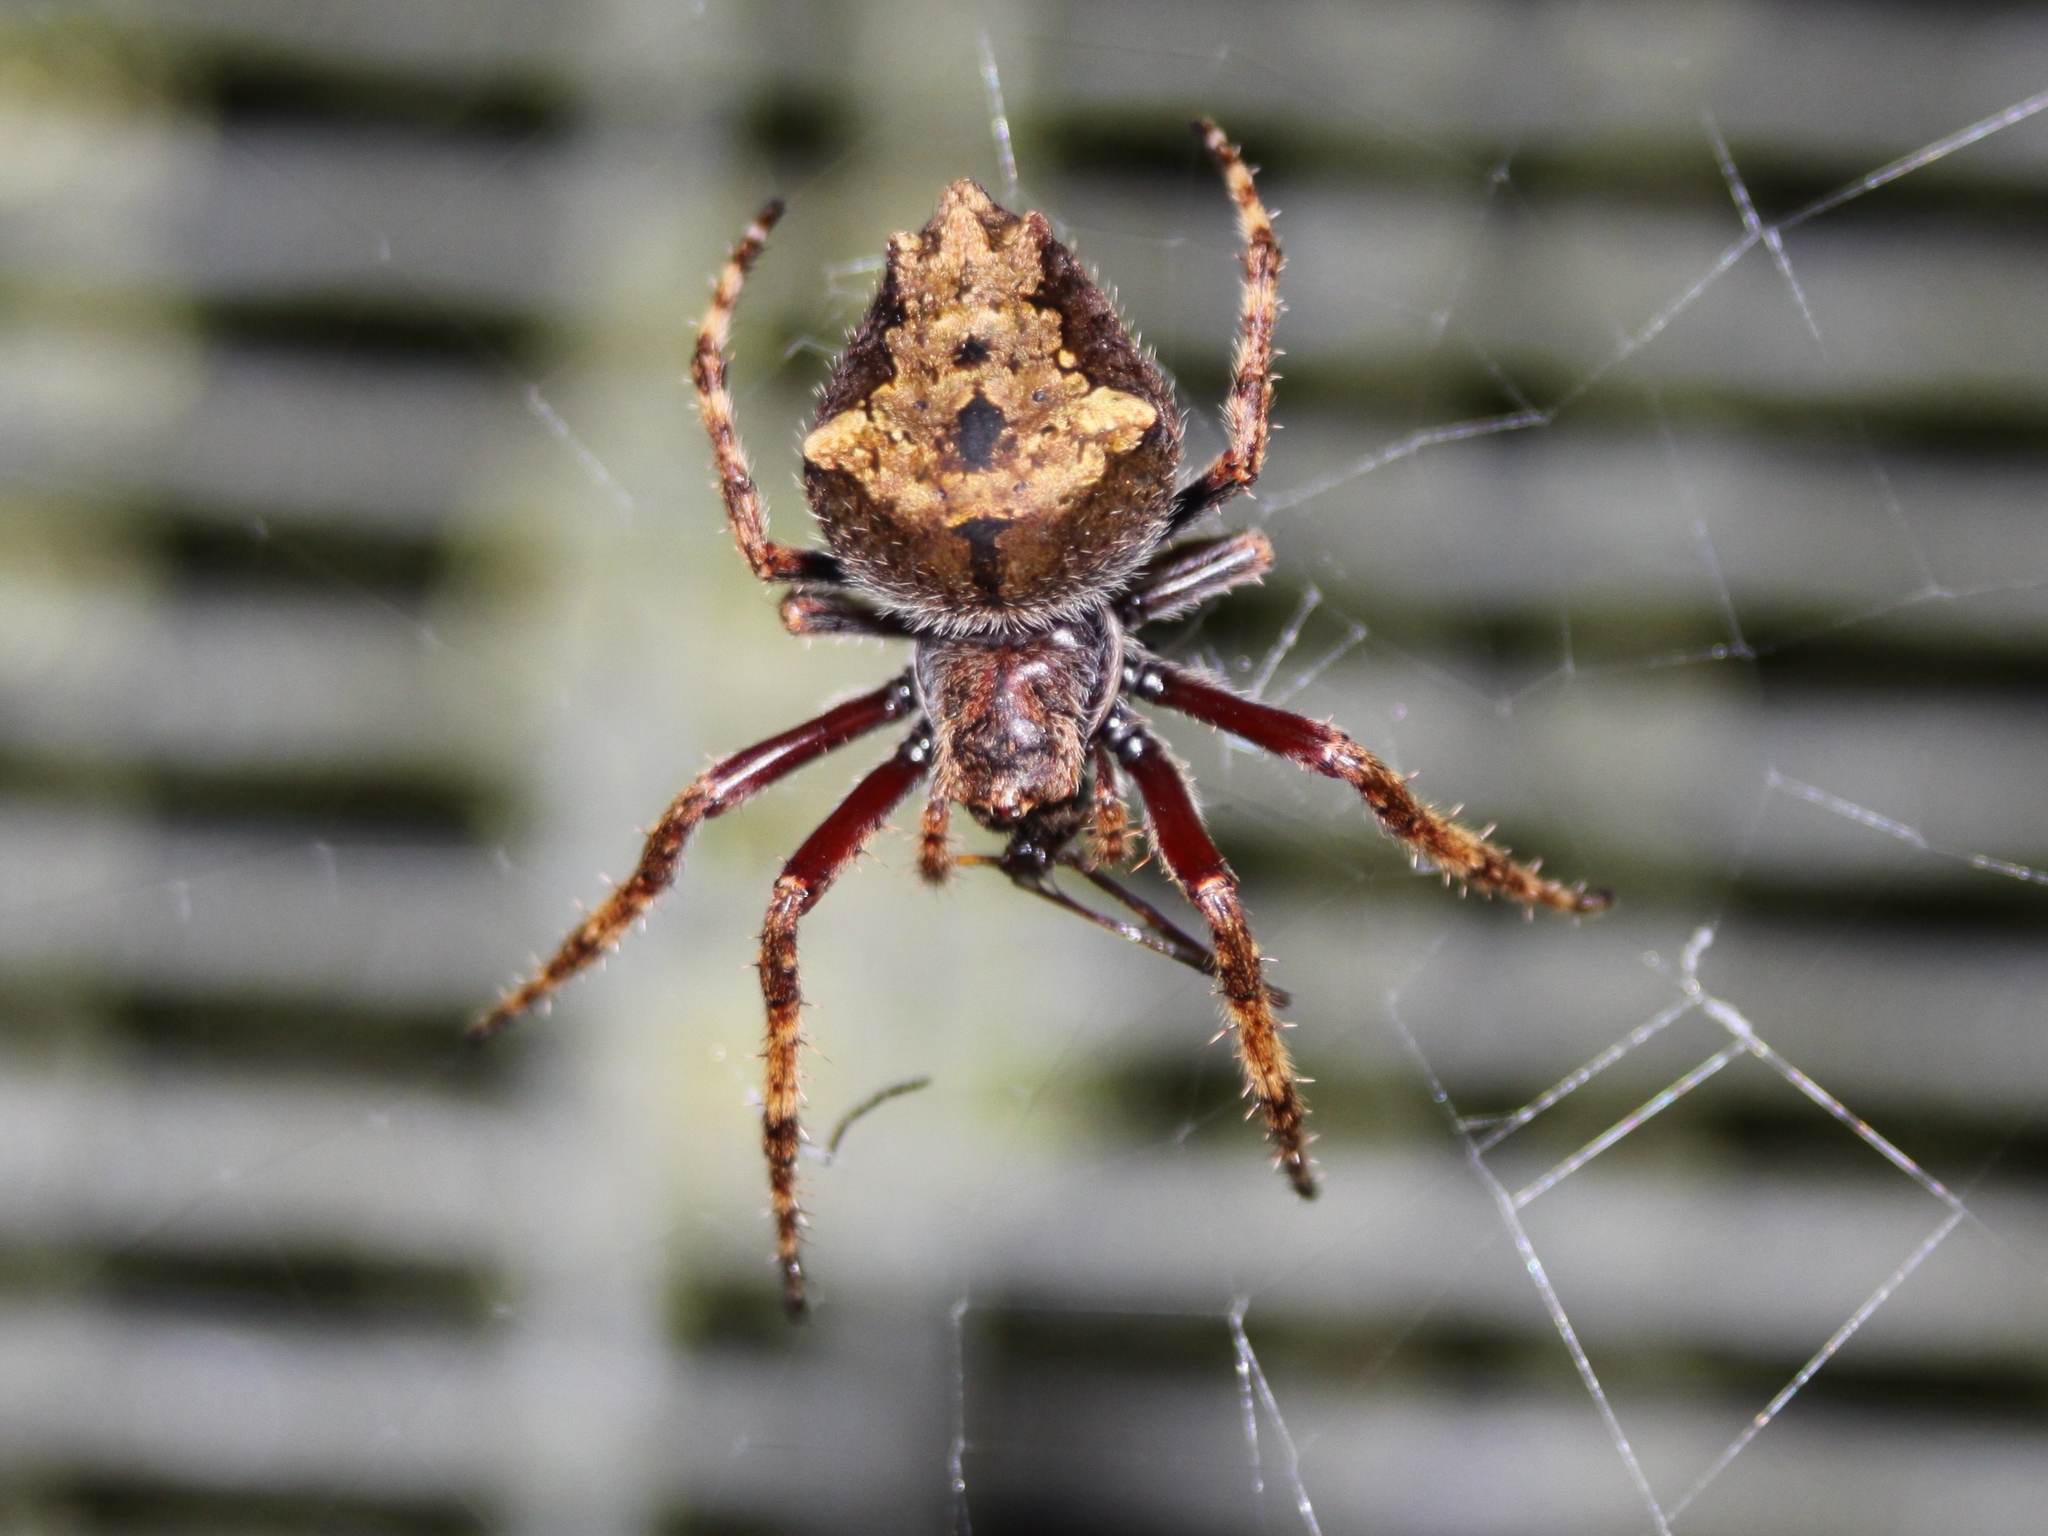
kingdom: Animalia
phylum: Arthropoda
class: Arachnida
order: Araneae
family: Araneidae
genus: Eriophora
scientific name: Eriophora pustulosa
